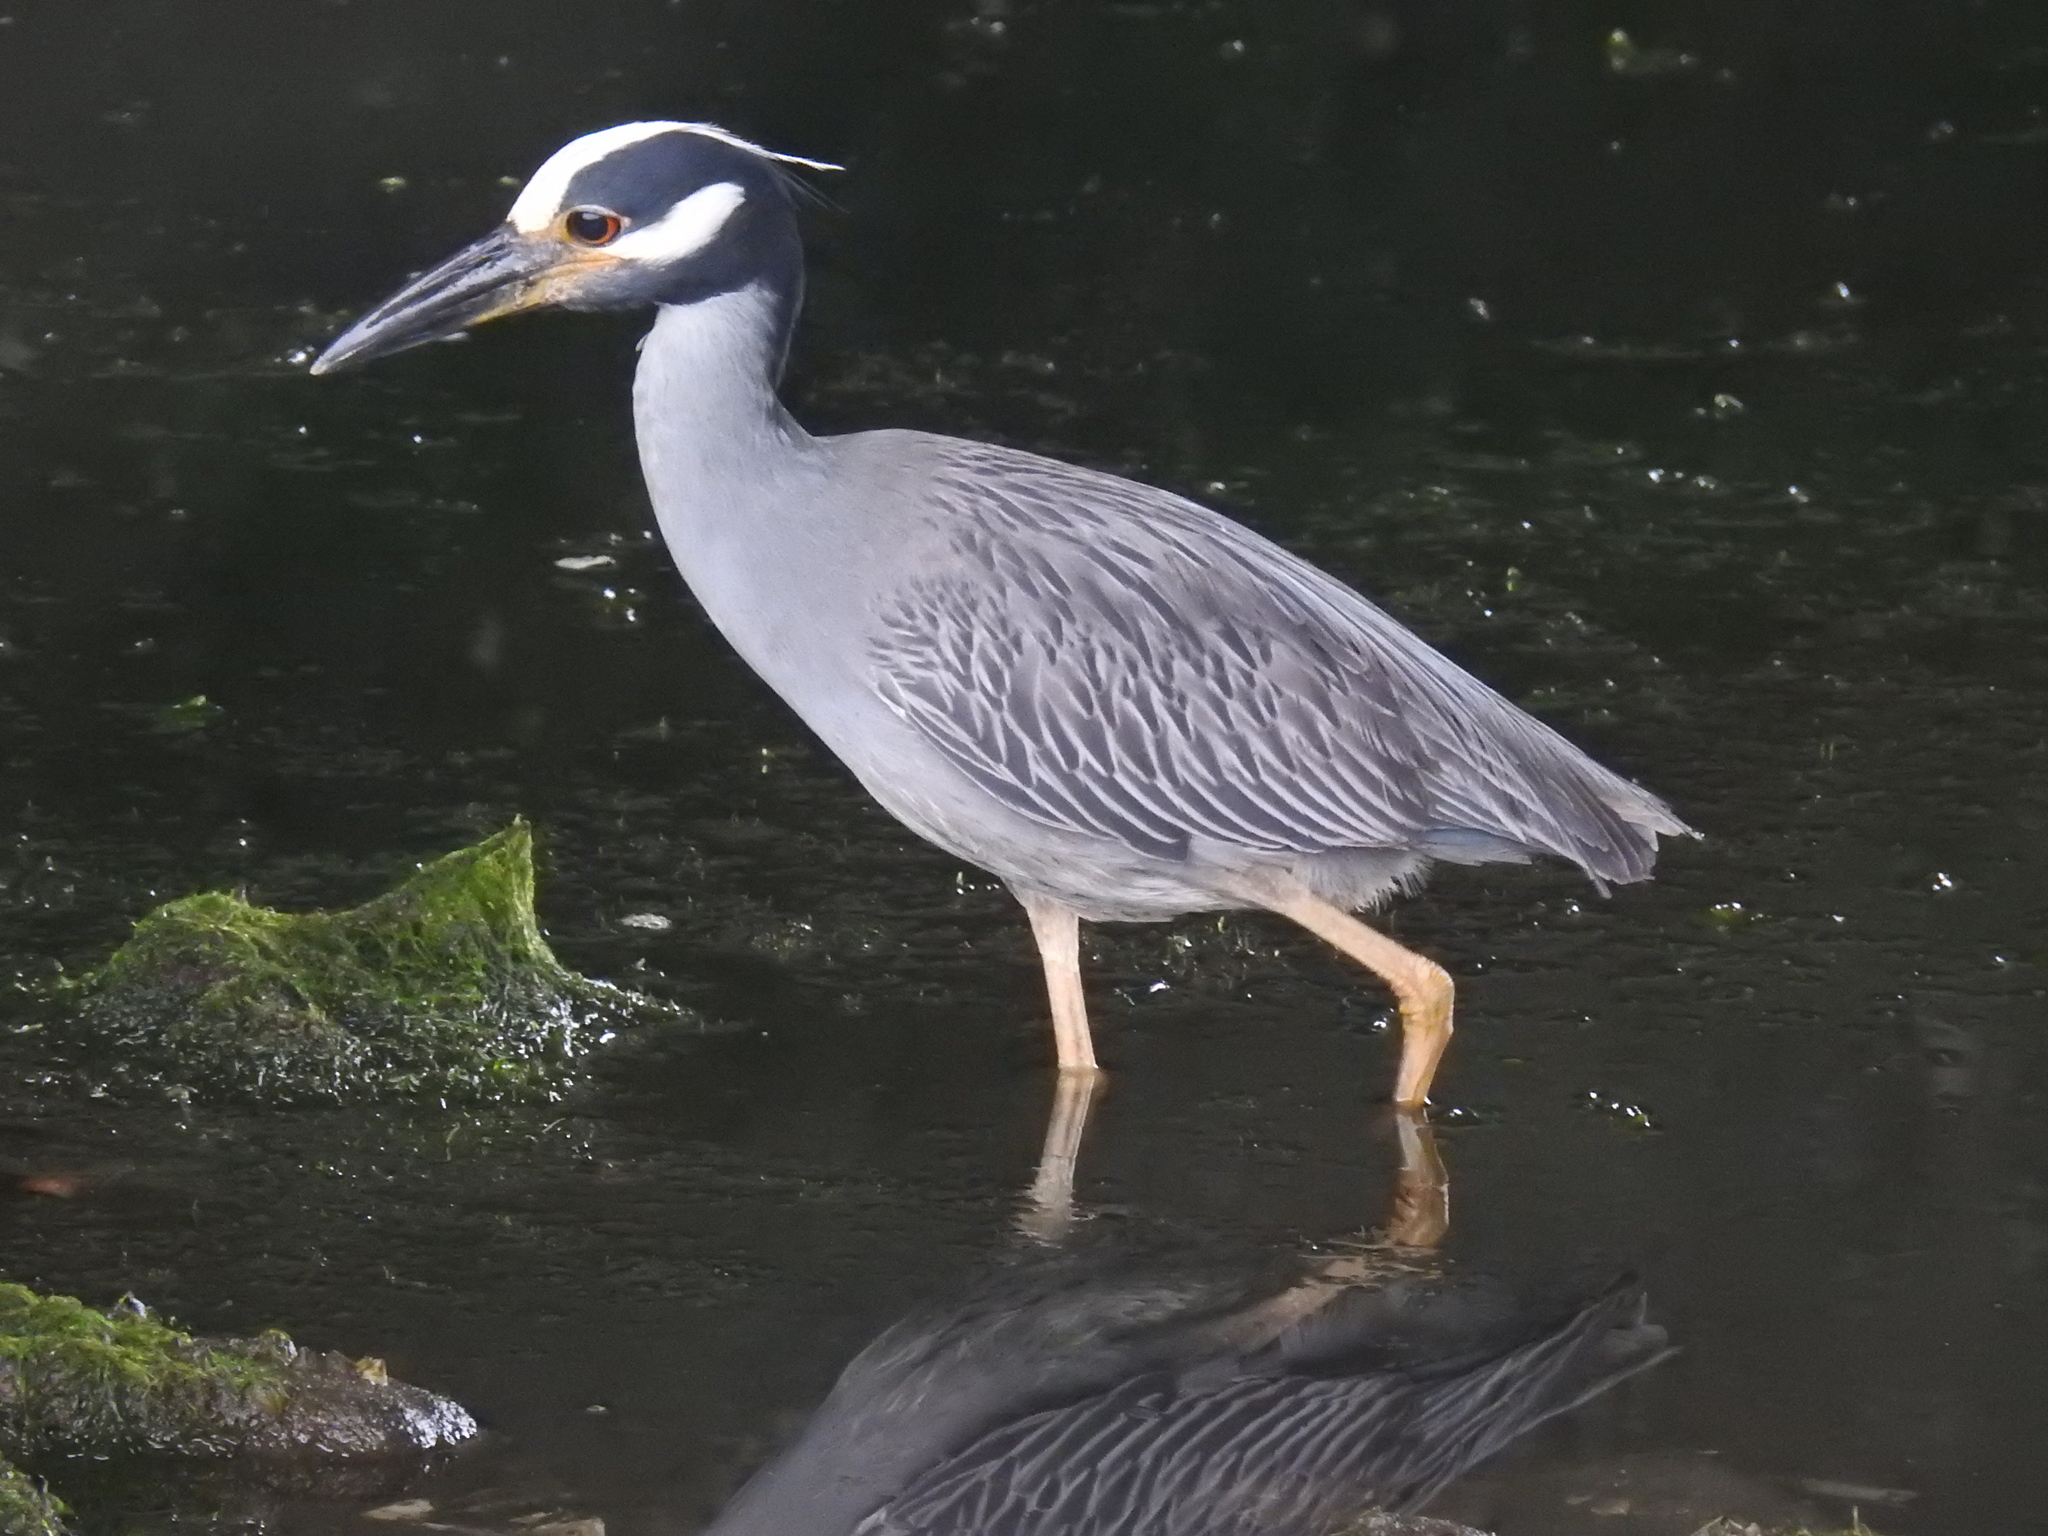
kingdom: Animalia
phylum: Chordata
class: Aves
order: Pelecaniformes
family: Ardeidae
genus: Nyctanassa
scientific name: Nyctanassa violacea
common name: Yellow-crowned night heron
